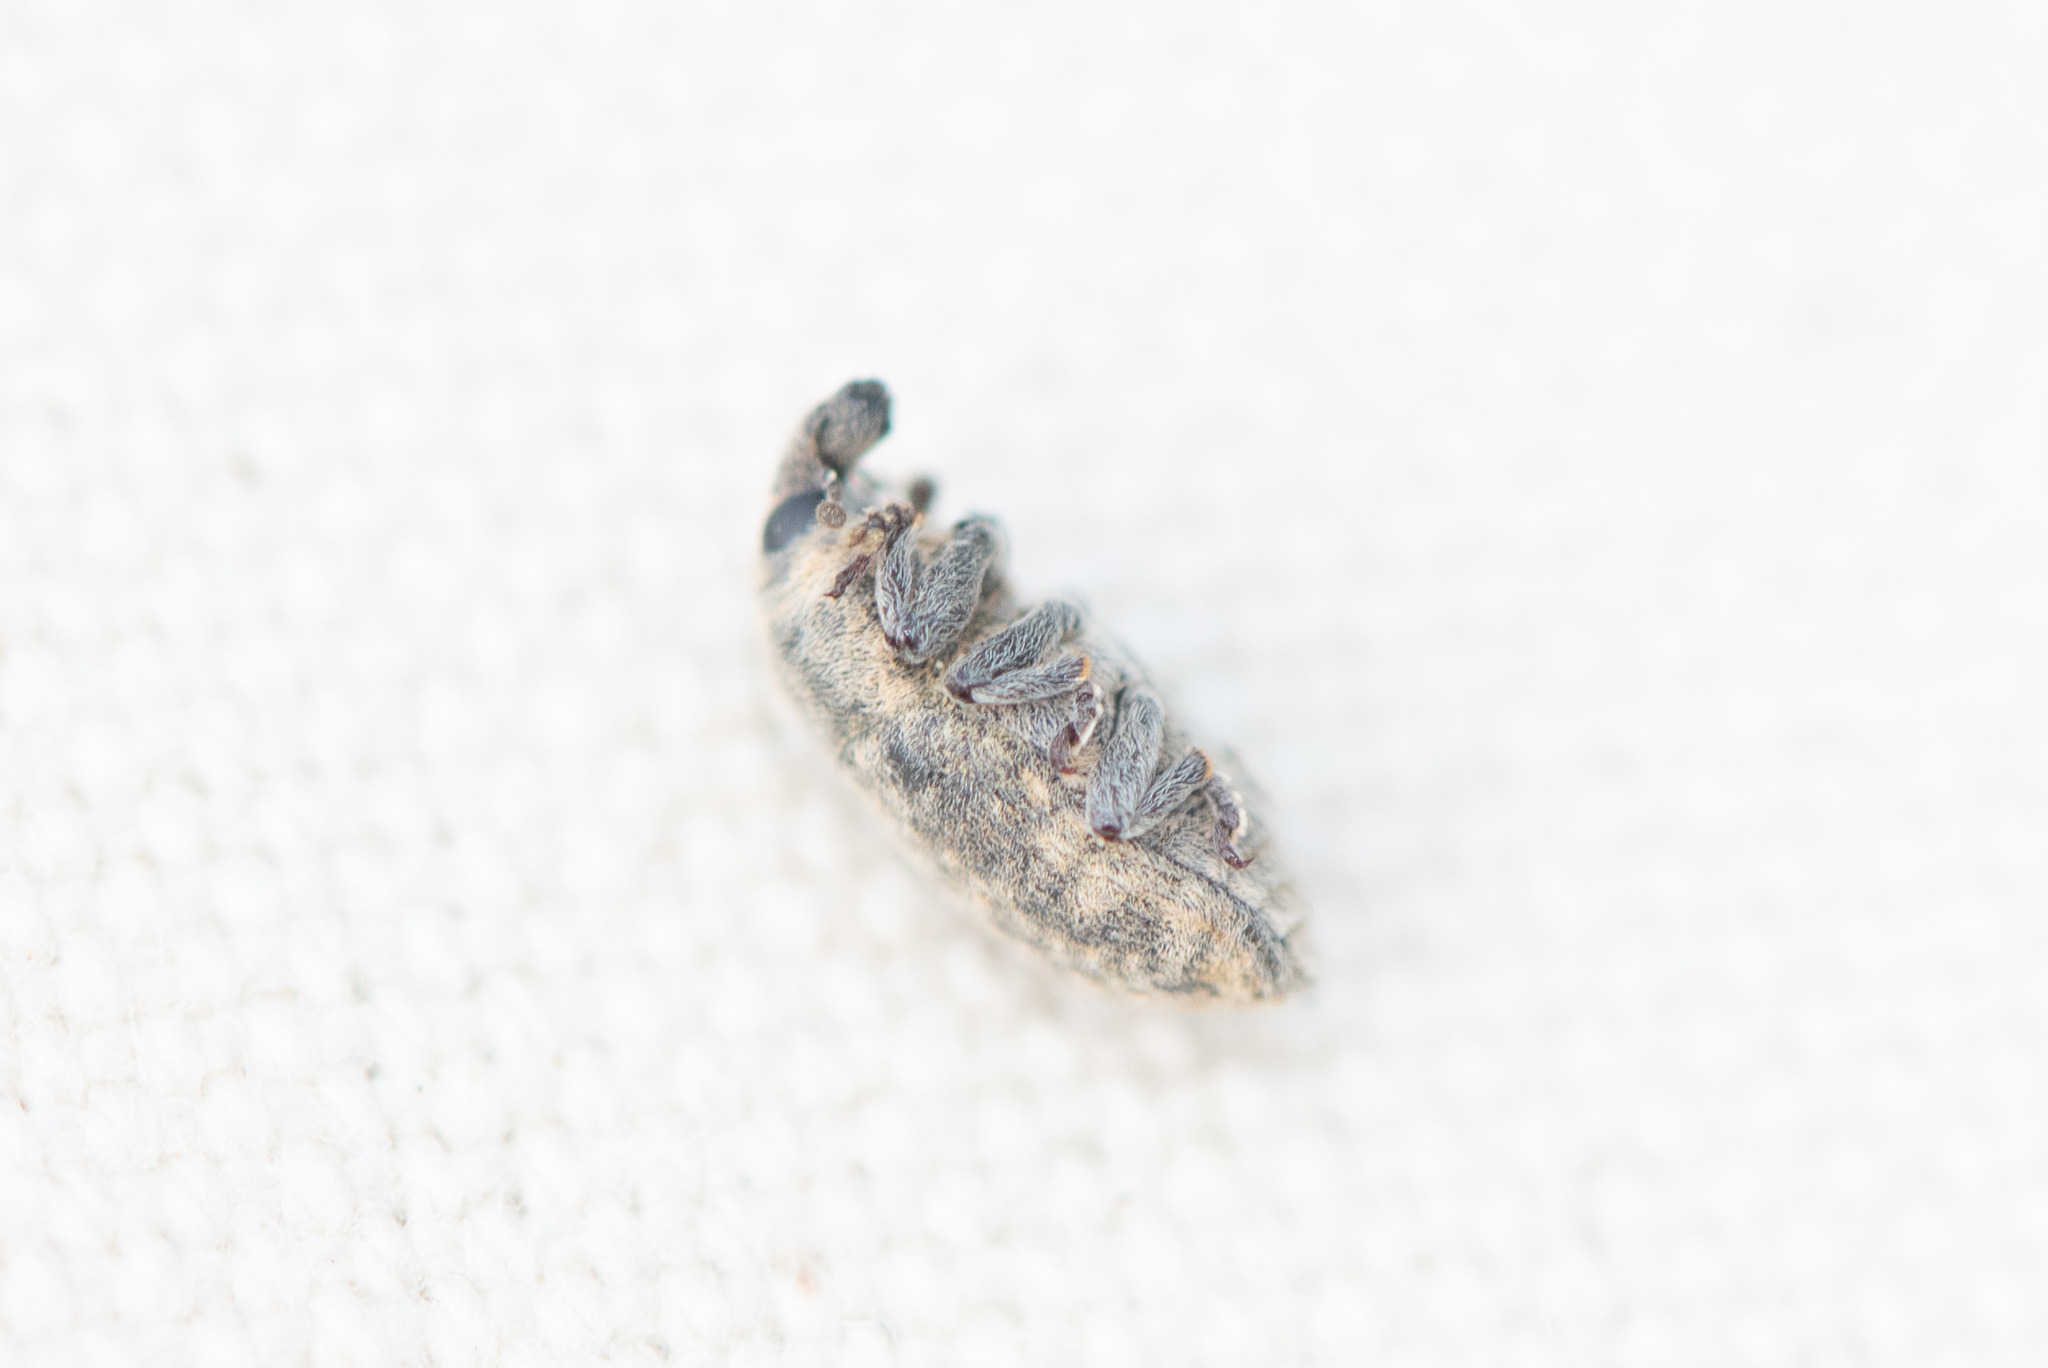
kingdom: Animalia
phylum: Arthropoda
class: Insecta
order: Coleoptera
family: Curculionidae
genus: Larinus
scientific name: Larinus minutus
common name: Weevil
